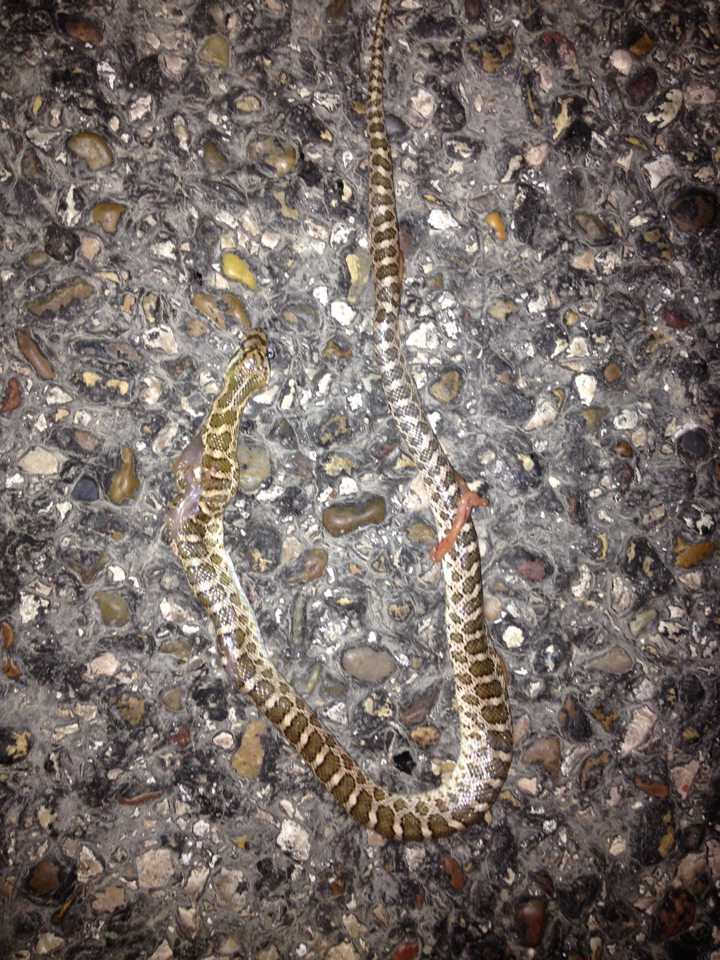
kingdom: Animalia
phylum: Chordata
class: Squamata
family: Colubridae
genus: Arizona
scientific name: Arizona elegans
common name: Glossy snake
